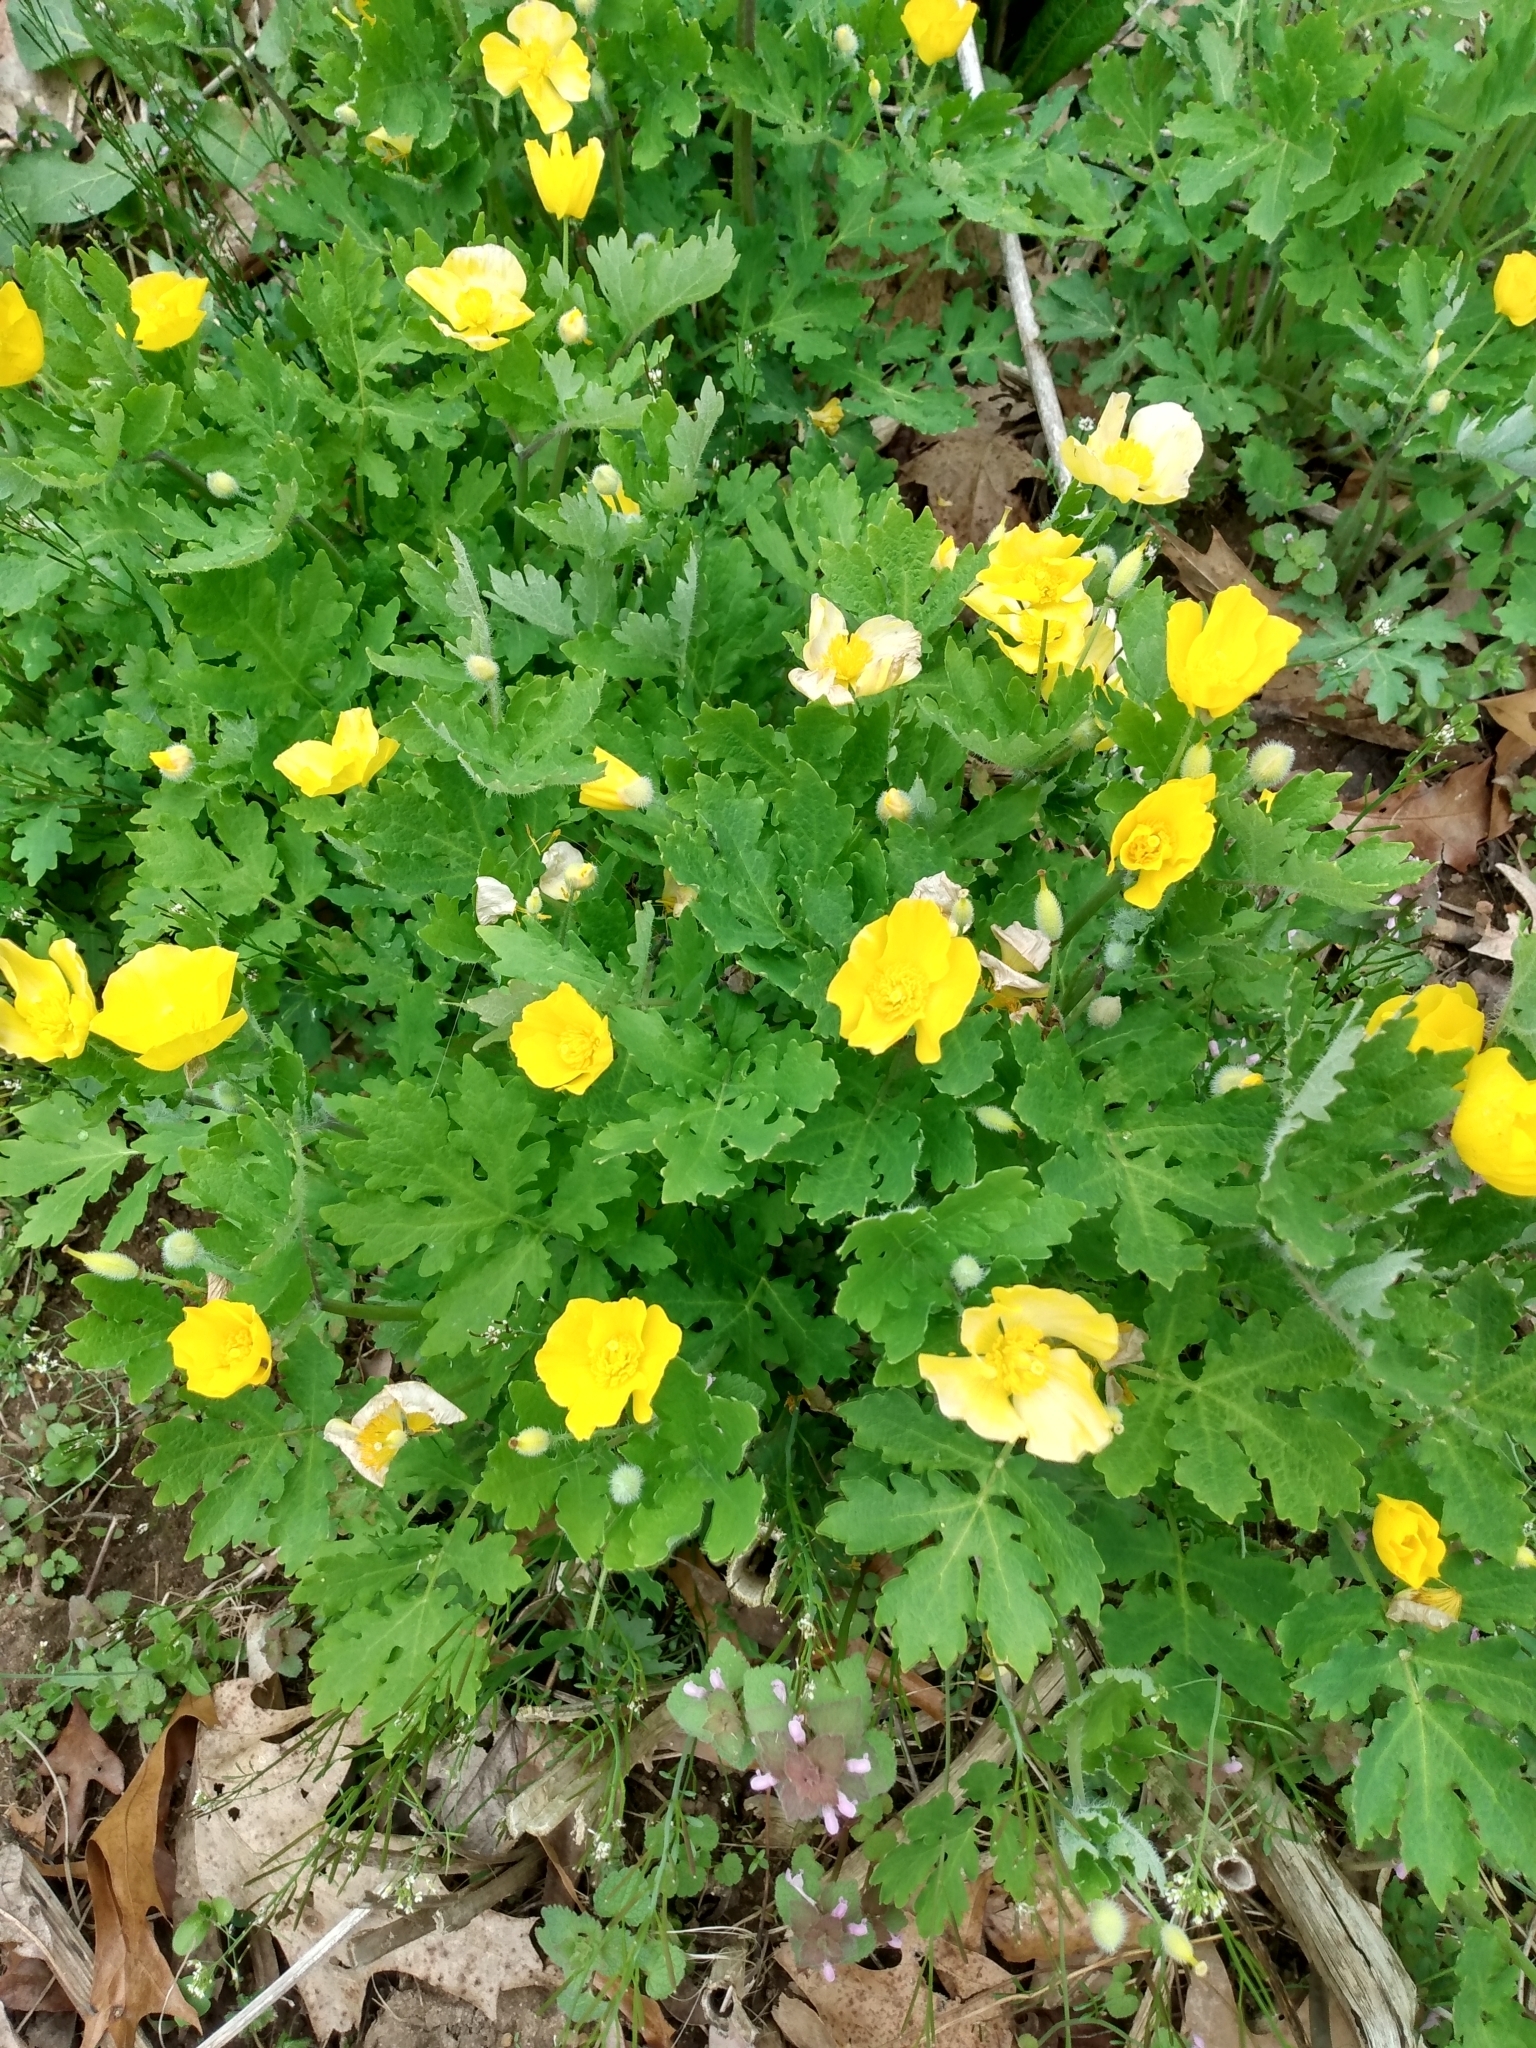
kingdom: Plantae
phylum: Tracheophyta
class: Magnoliopsida
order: Ranunculales
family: Papaveraceae
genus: Stylophorum
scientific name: Stylophorum diphyllum
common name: Celandine poppy
